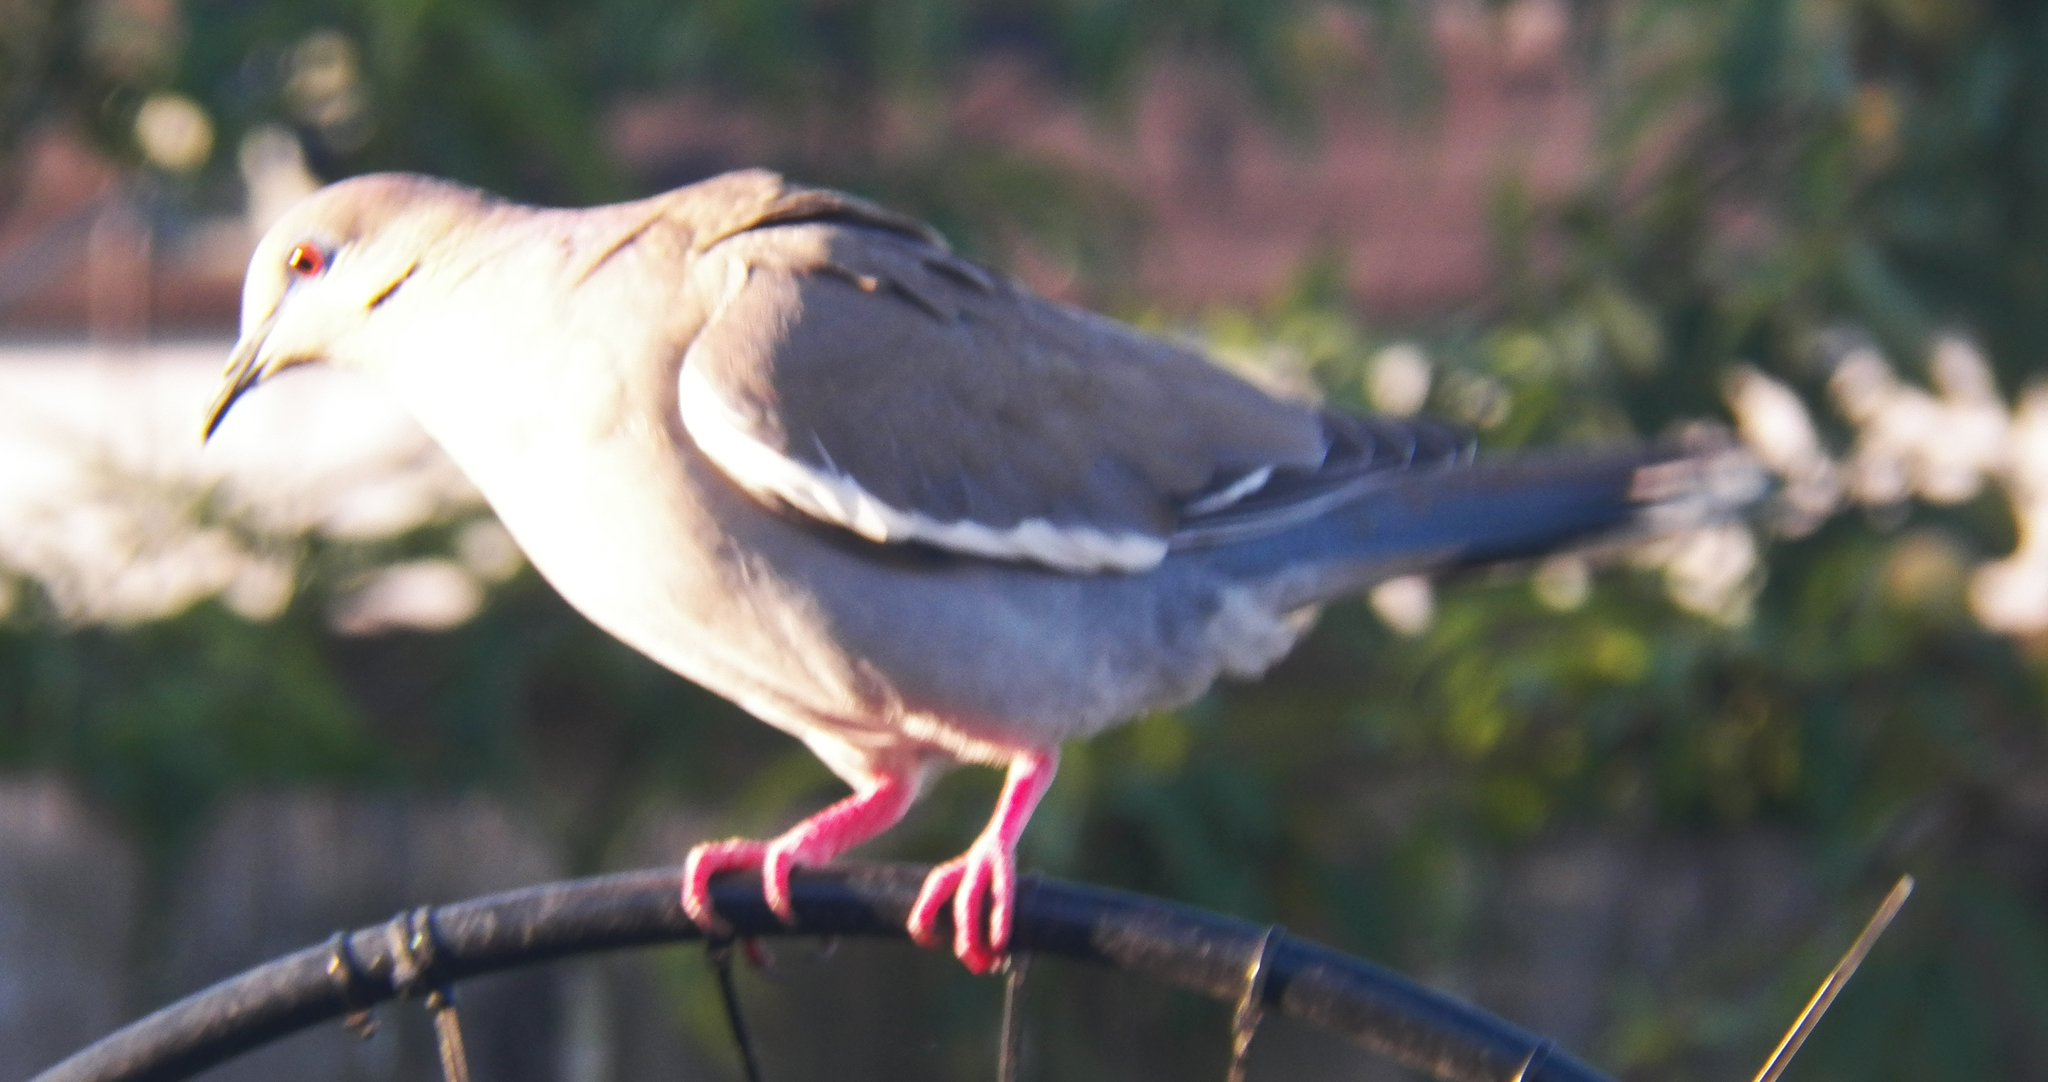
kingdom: Animalia
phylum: Chordata
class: Aves
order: Columbiformes
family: Columbidae
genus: Zenaida
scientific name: Zenaida asiatica
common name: White-winged dove
